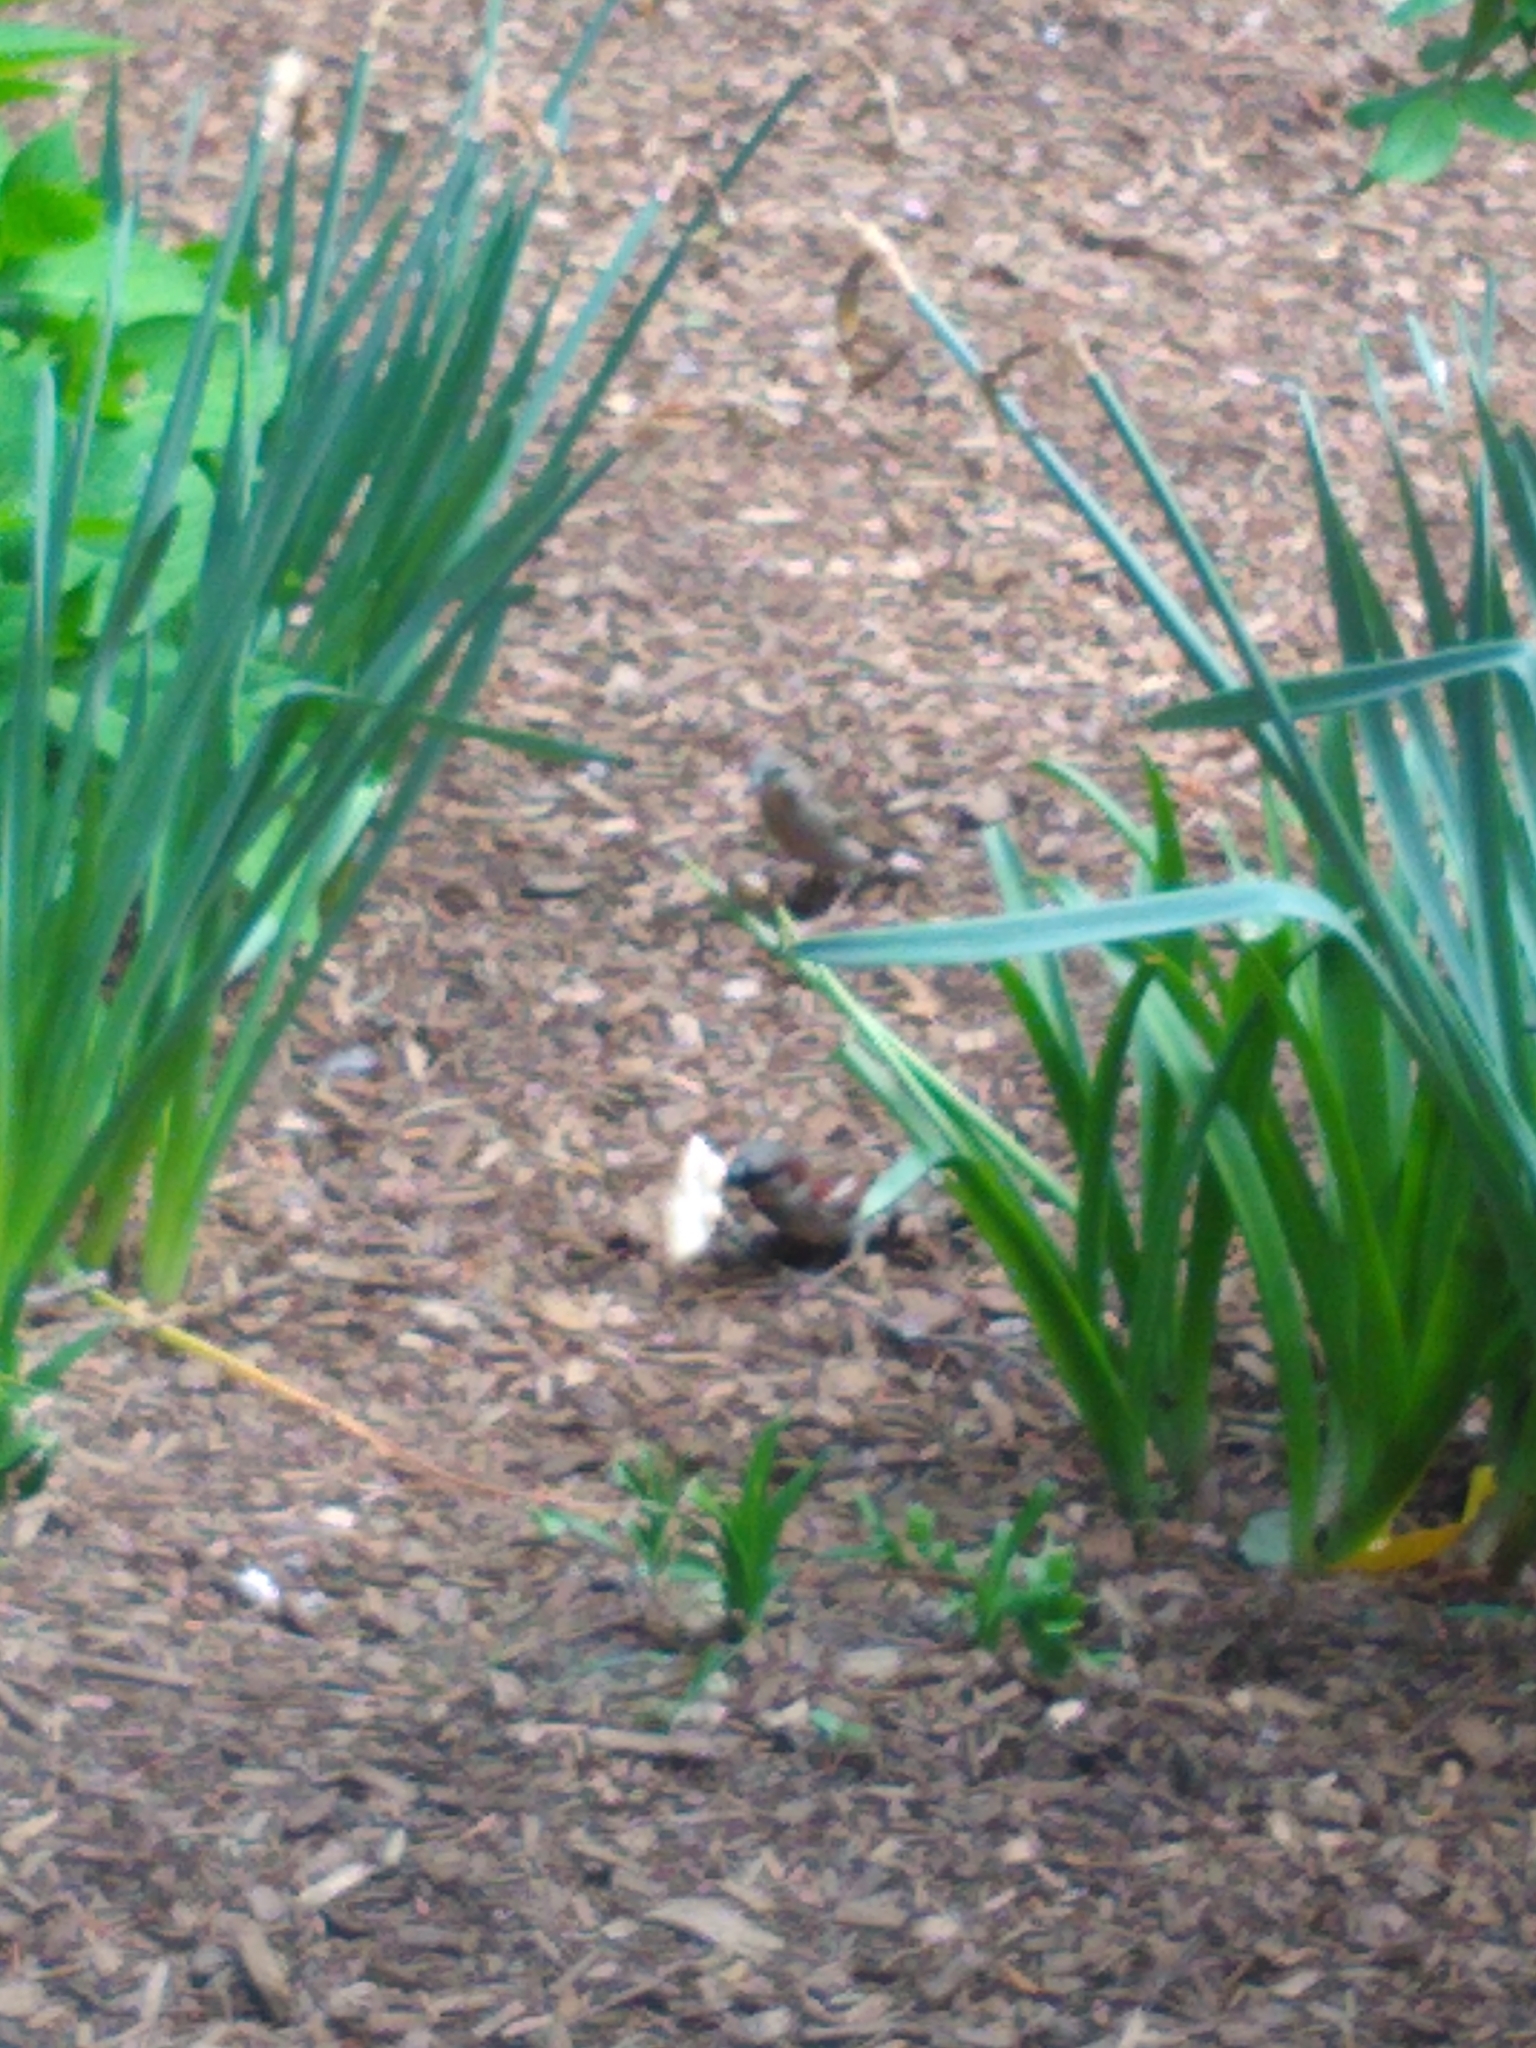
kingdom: Animalia
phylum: Chordata
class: Aves
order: Passeriformes
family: Passeridae
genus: Passer
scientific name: Passer domesticus
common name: House sparrow
